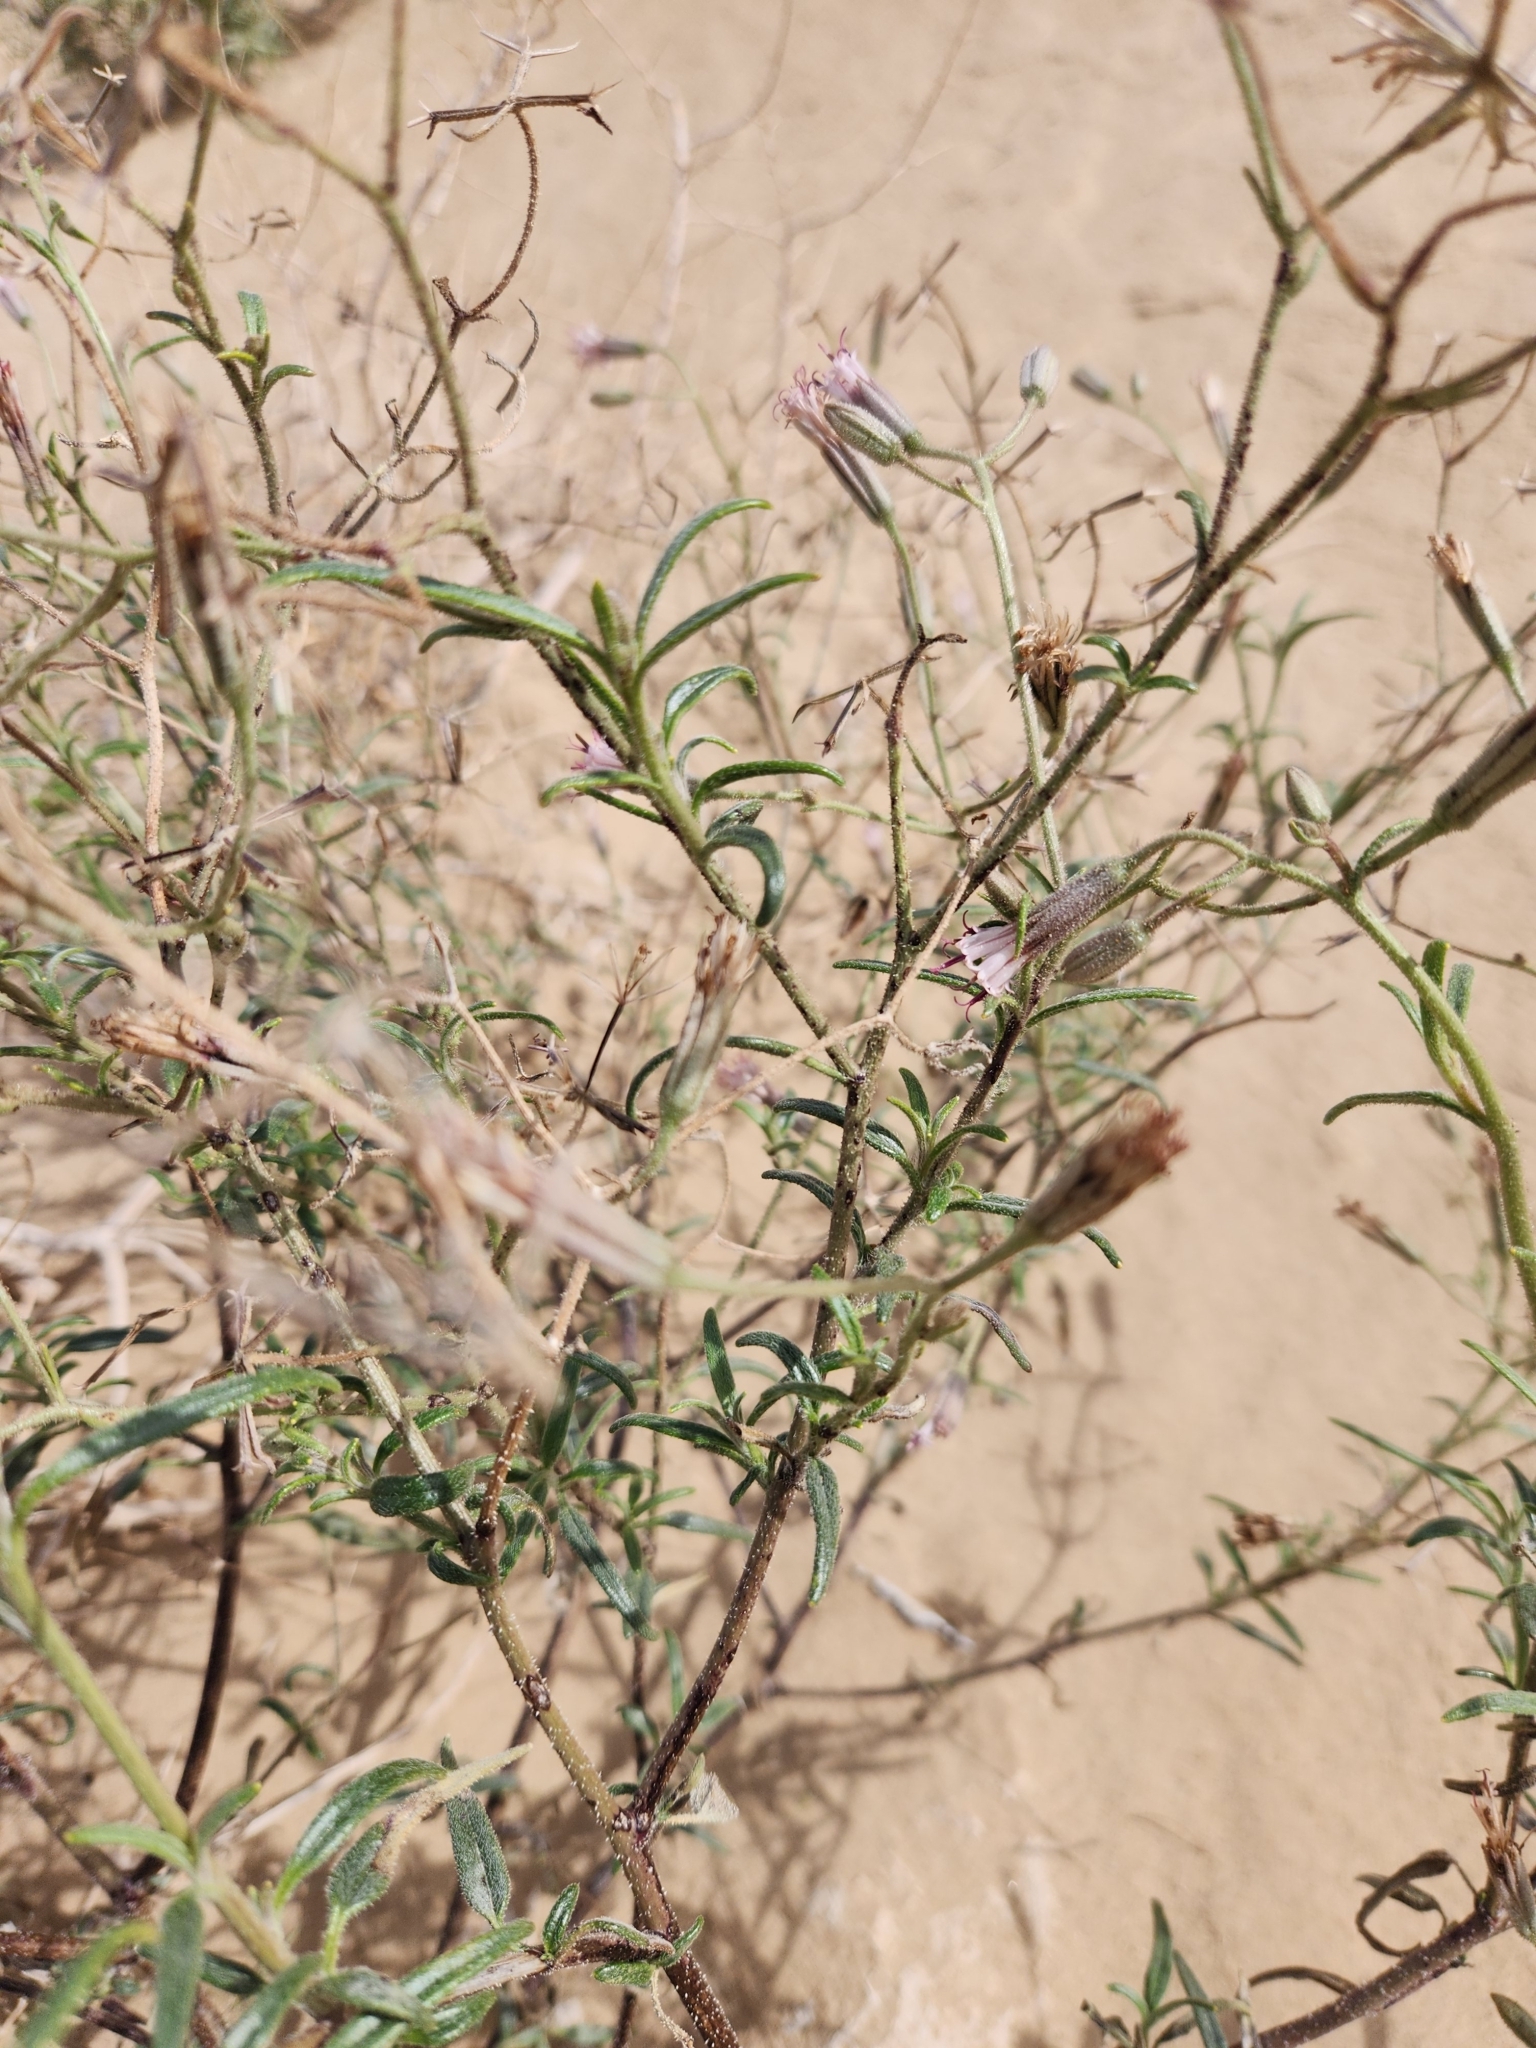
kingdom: Plantae
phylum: Tracheophyta
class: Magnoliopsida
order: Asterales
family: Asteraceae
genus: Palafoxia
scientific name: Palafoxia arida
